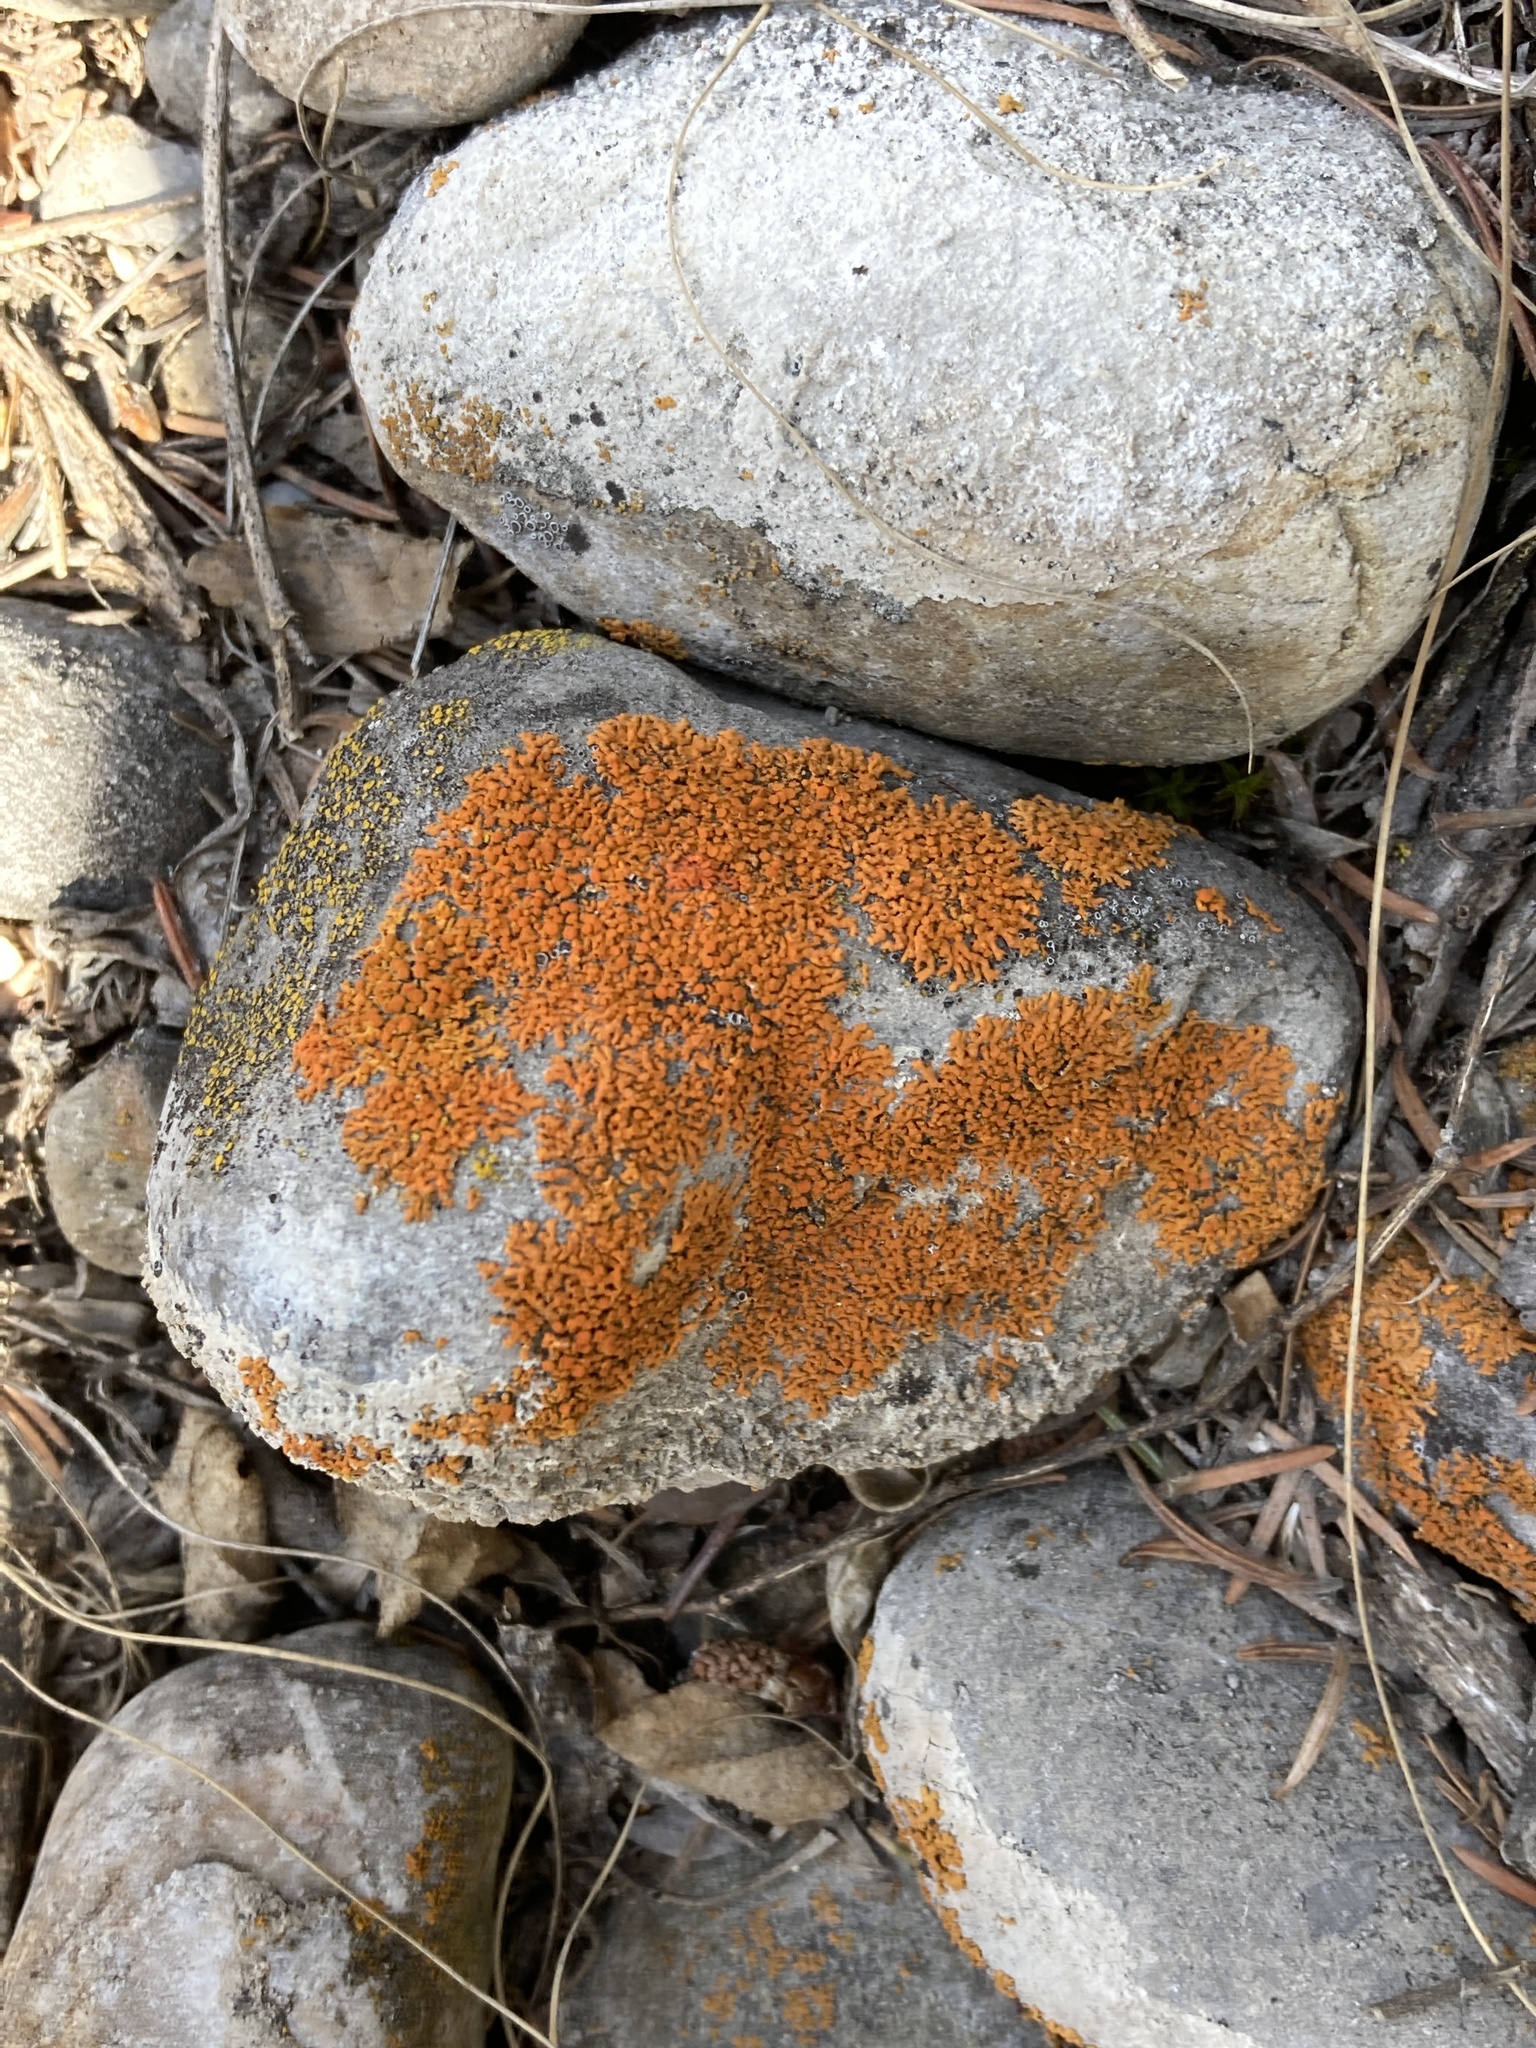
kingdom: Fungi
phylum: Ascomycota
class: Lecanoromycetes
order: Teloschistales
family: Teloschistaceae
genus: Xanthoria
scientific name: Xanthoria elegans
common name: Elegant sunburst lichen
